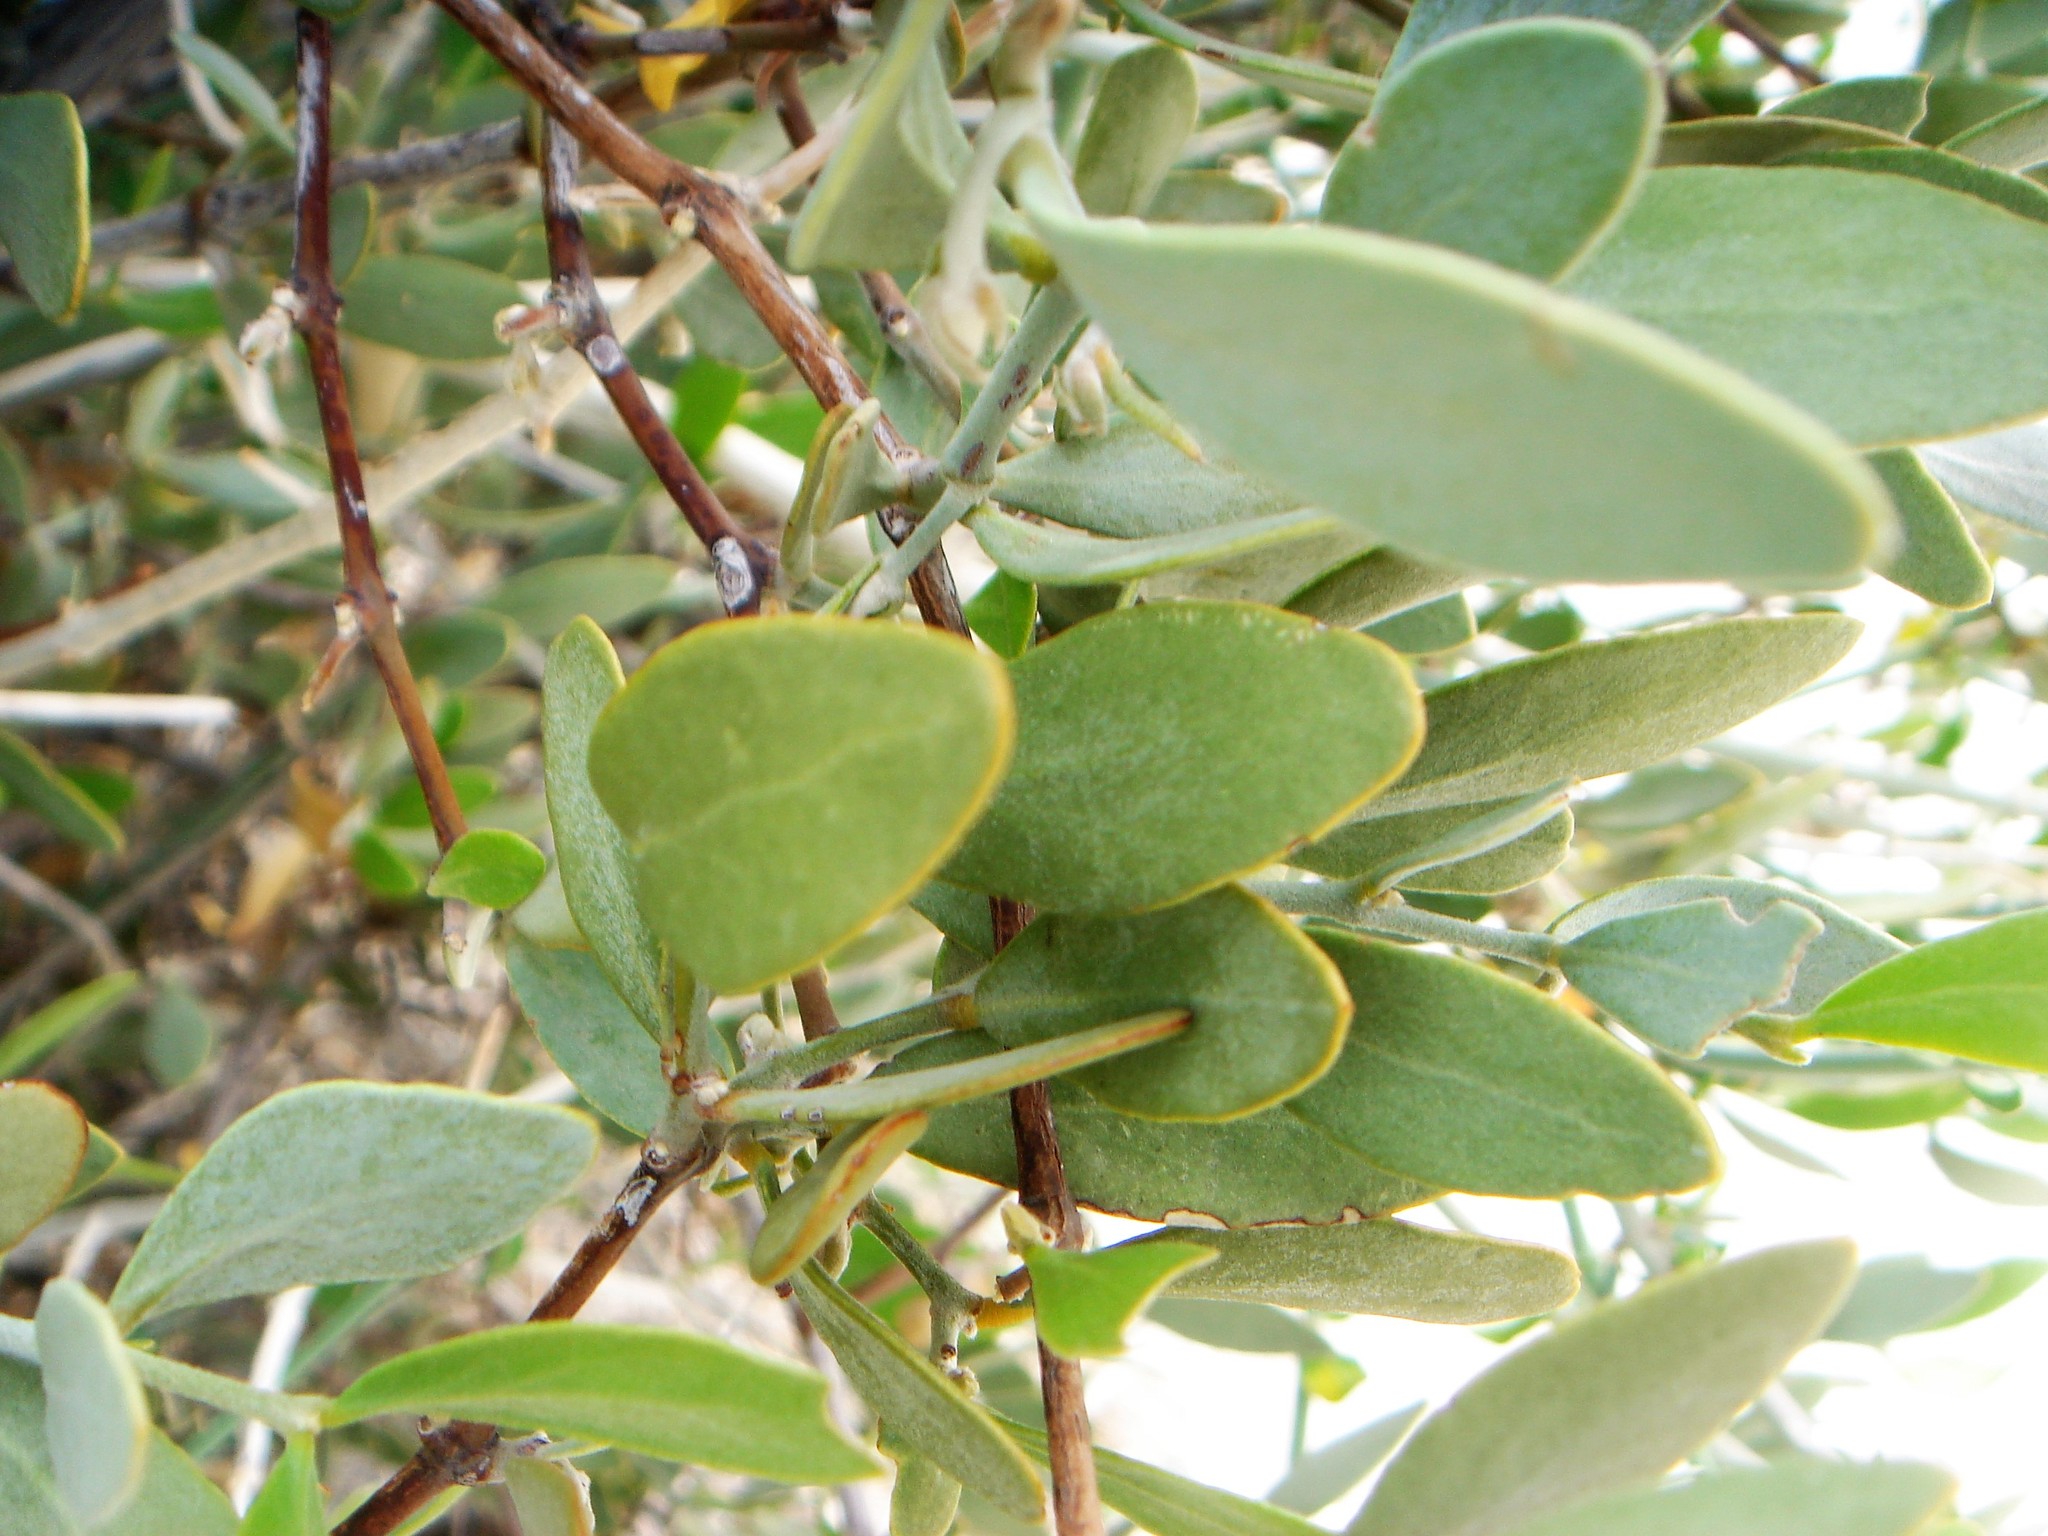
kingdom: Plantae
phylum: Tracheophyta
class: Magnoliopsida
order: Caryophyllales
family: Simmondsiaceae
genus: Simmondsia
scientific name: Simmondsia chinensis
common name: Jojoba
